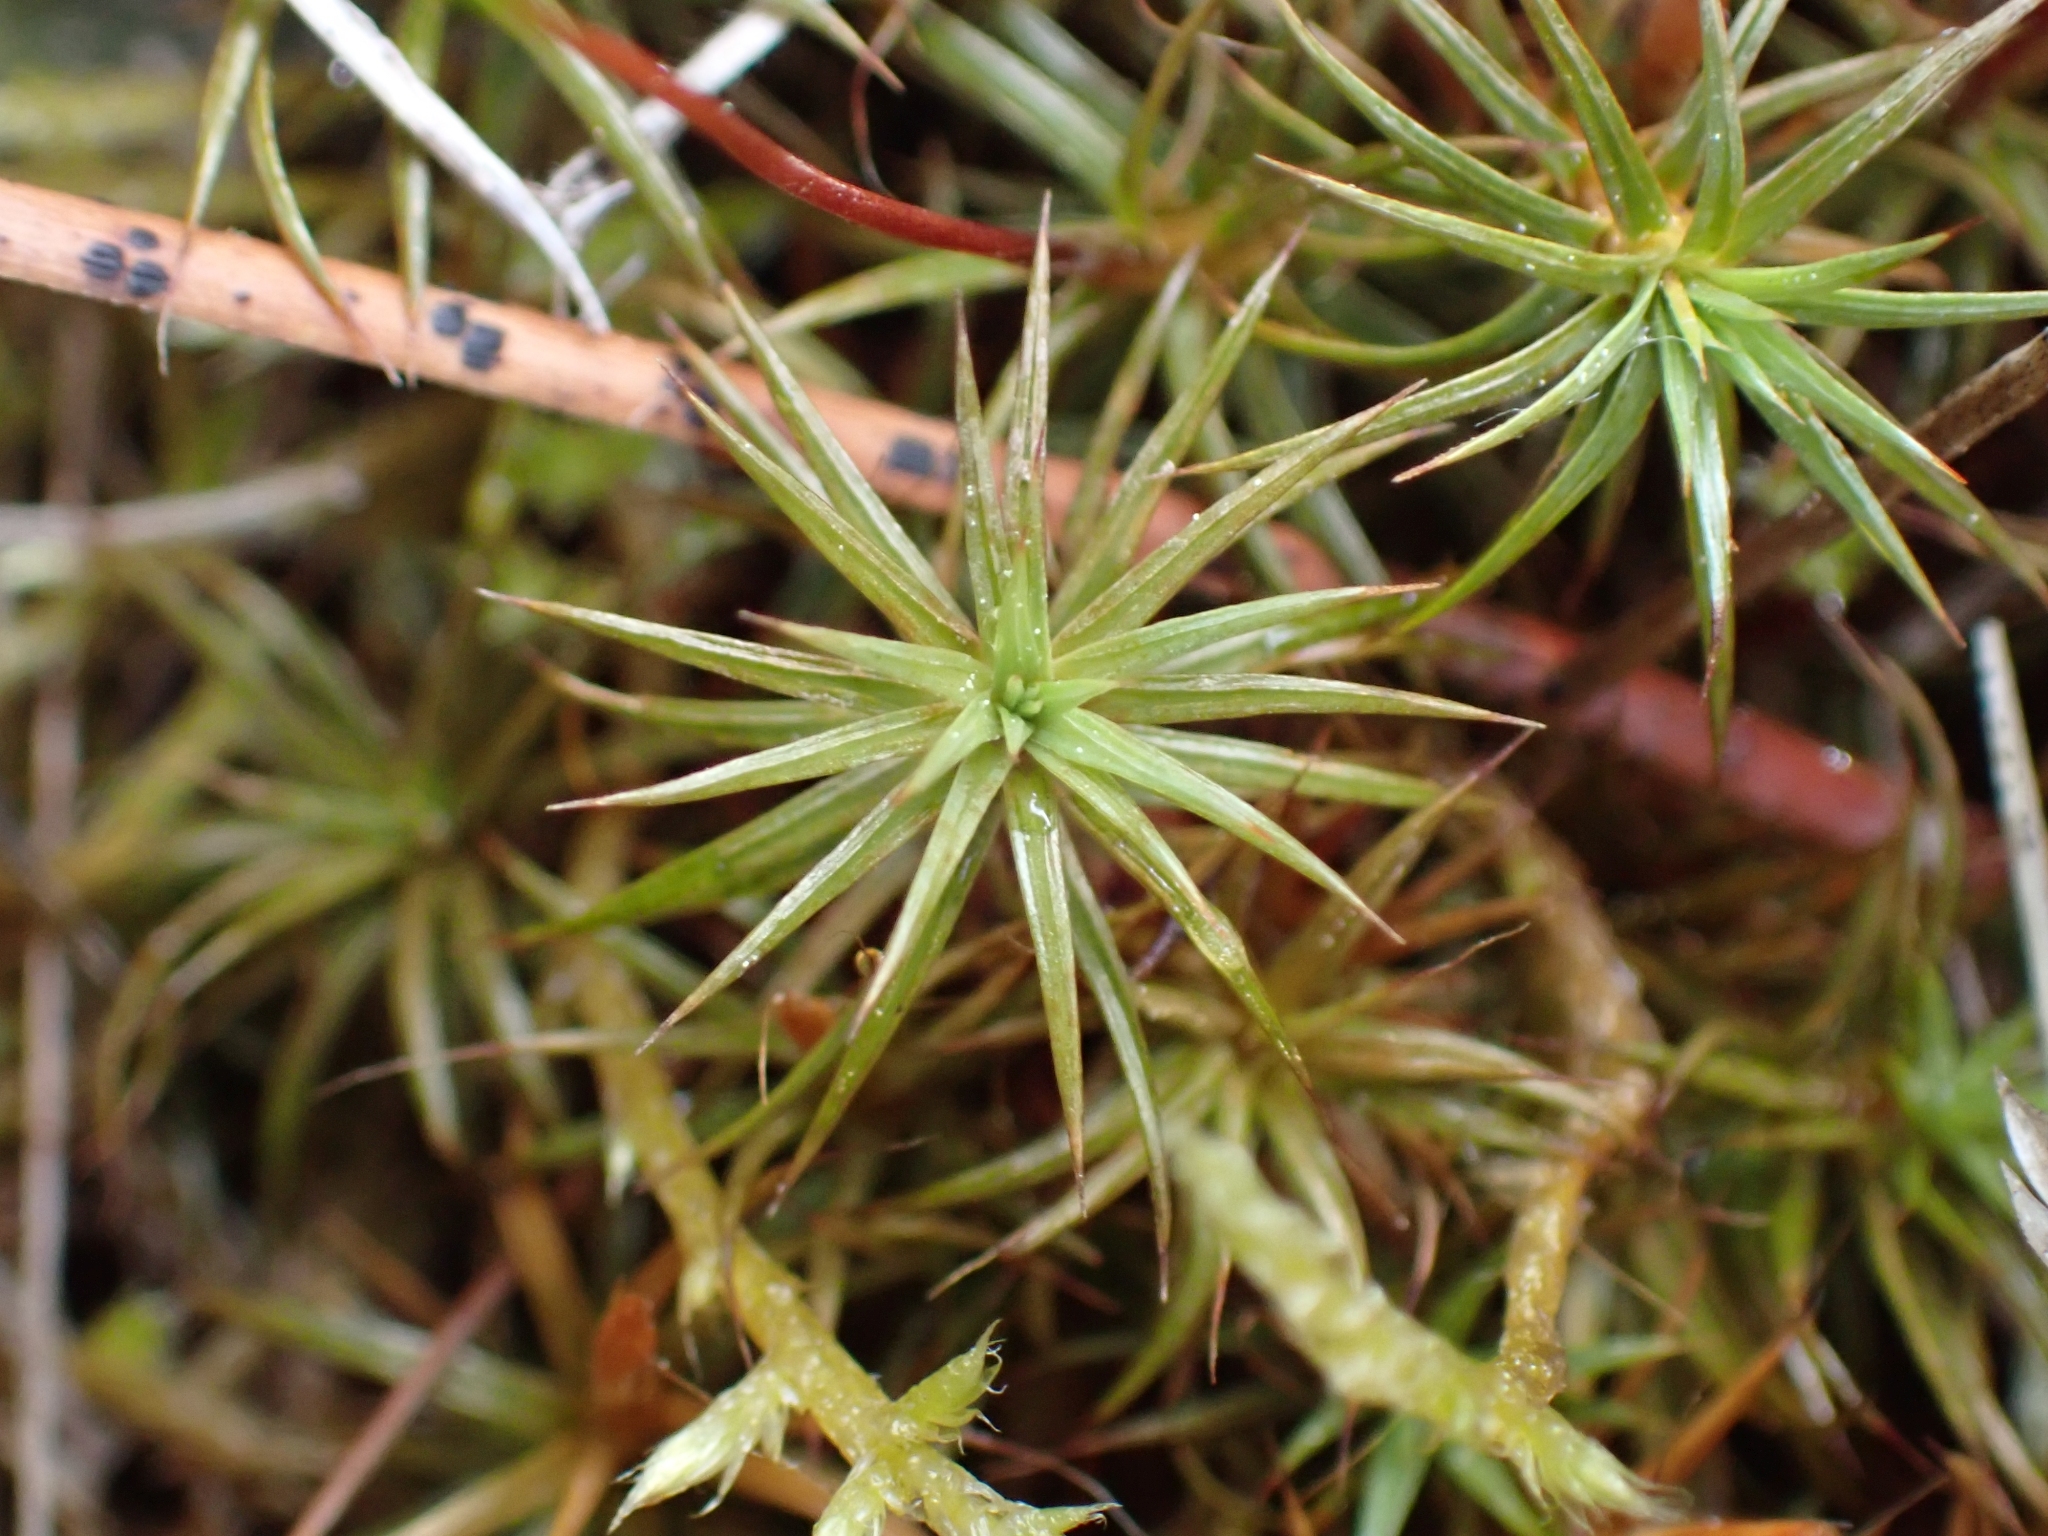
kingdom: Plantae
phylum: Bryophyta
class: Polytrichopsida
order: Polytrichales
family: Polytrichaceae
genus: Polytrichum
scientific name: Polytrichum juniperinum
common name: Juniper haircap moss
